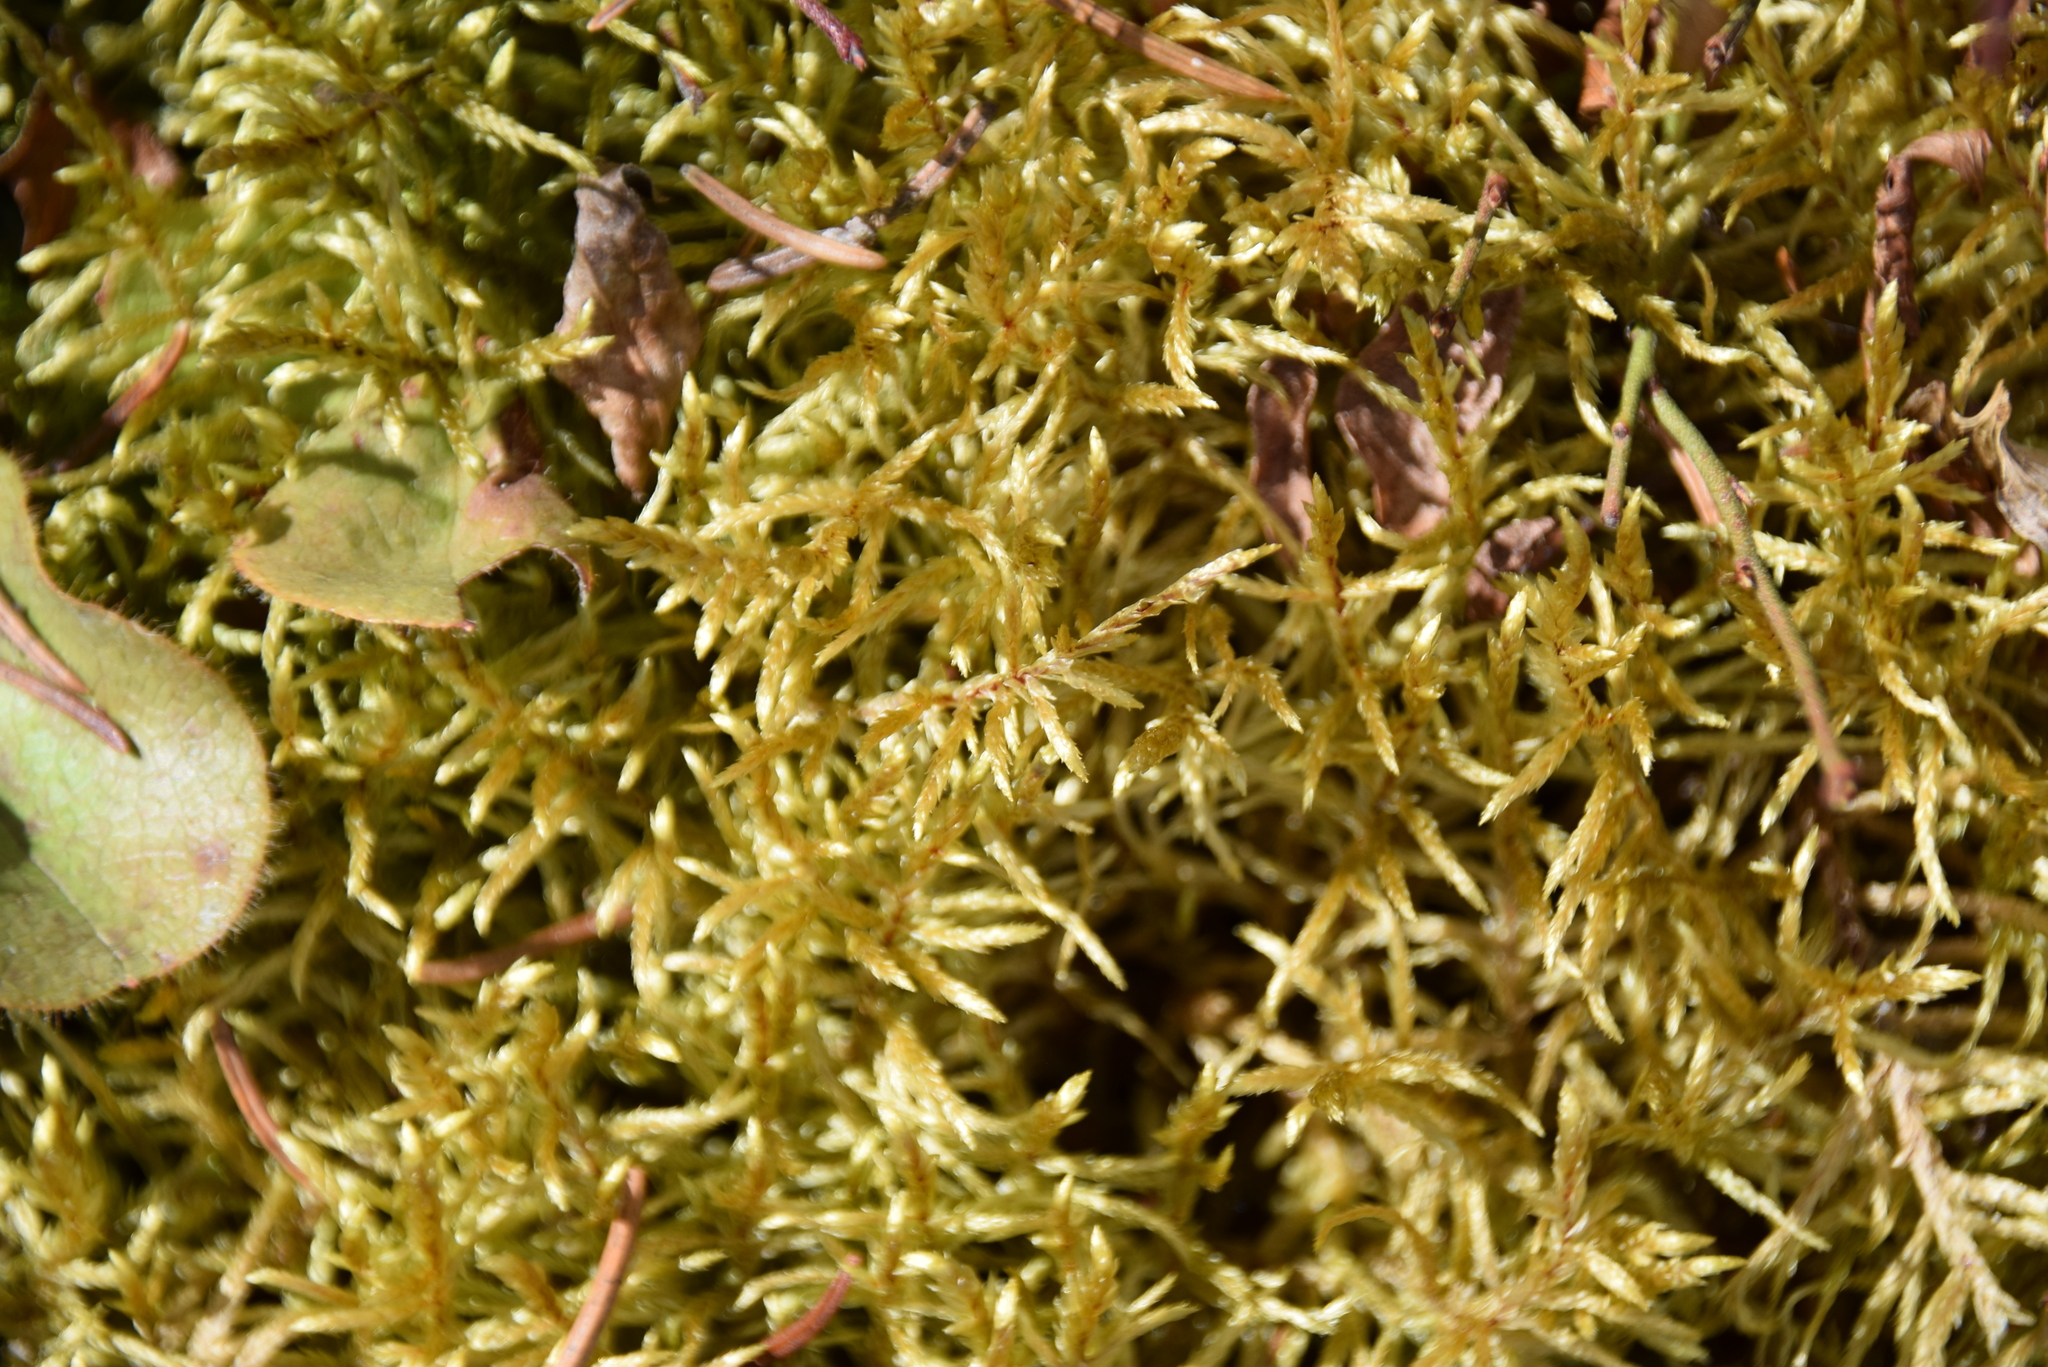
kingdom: Plantae
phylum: Bryophyta
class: Bryopsida
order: Hypnales
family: Hylocomiaceae
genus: Pleurozium
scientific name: Pleurozium schreberi
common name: Red-stemmed feather moss
